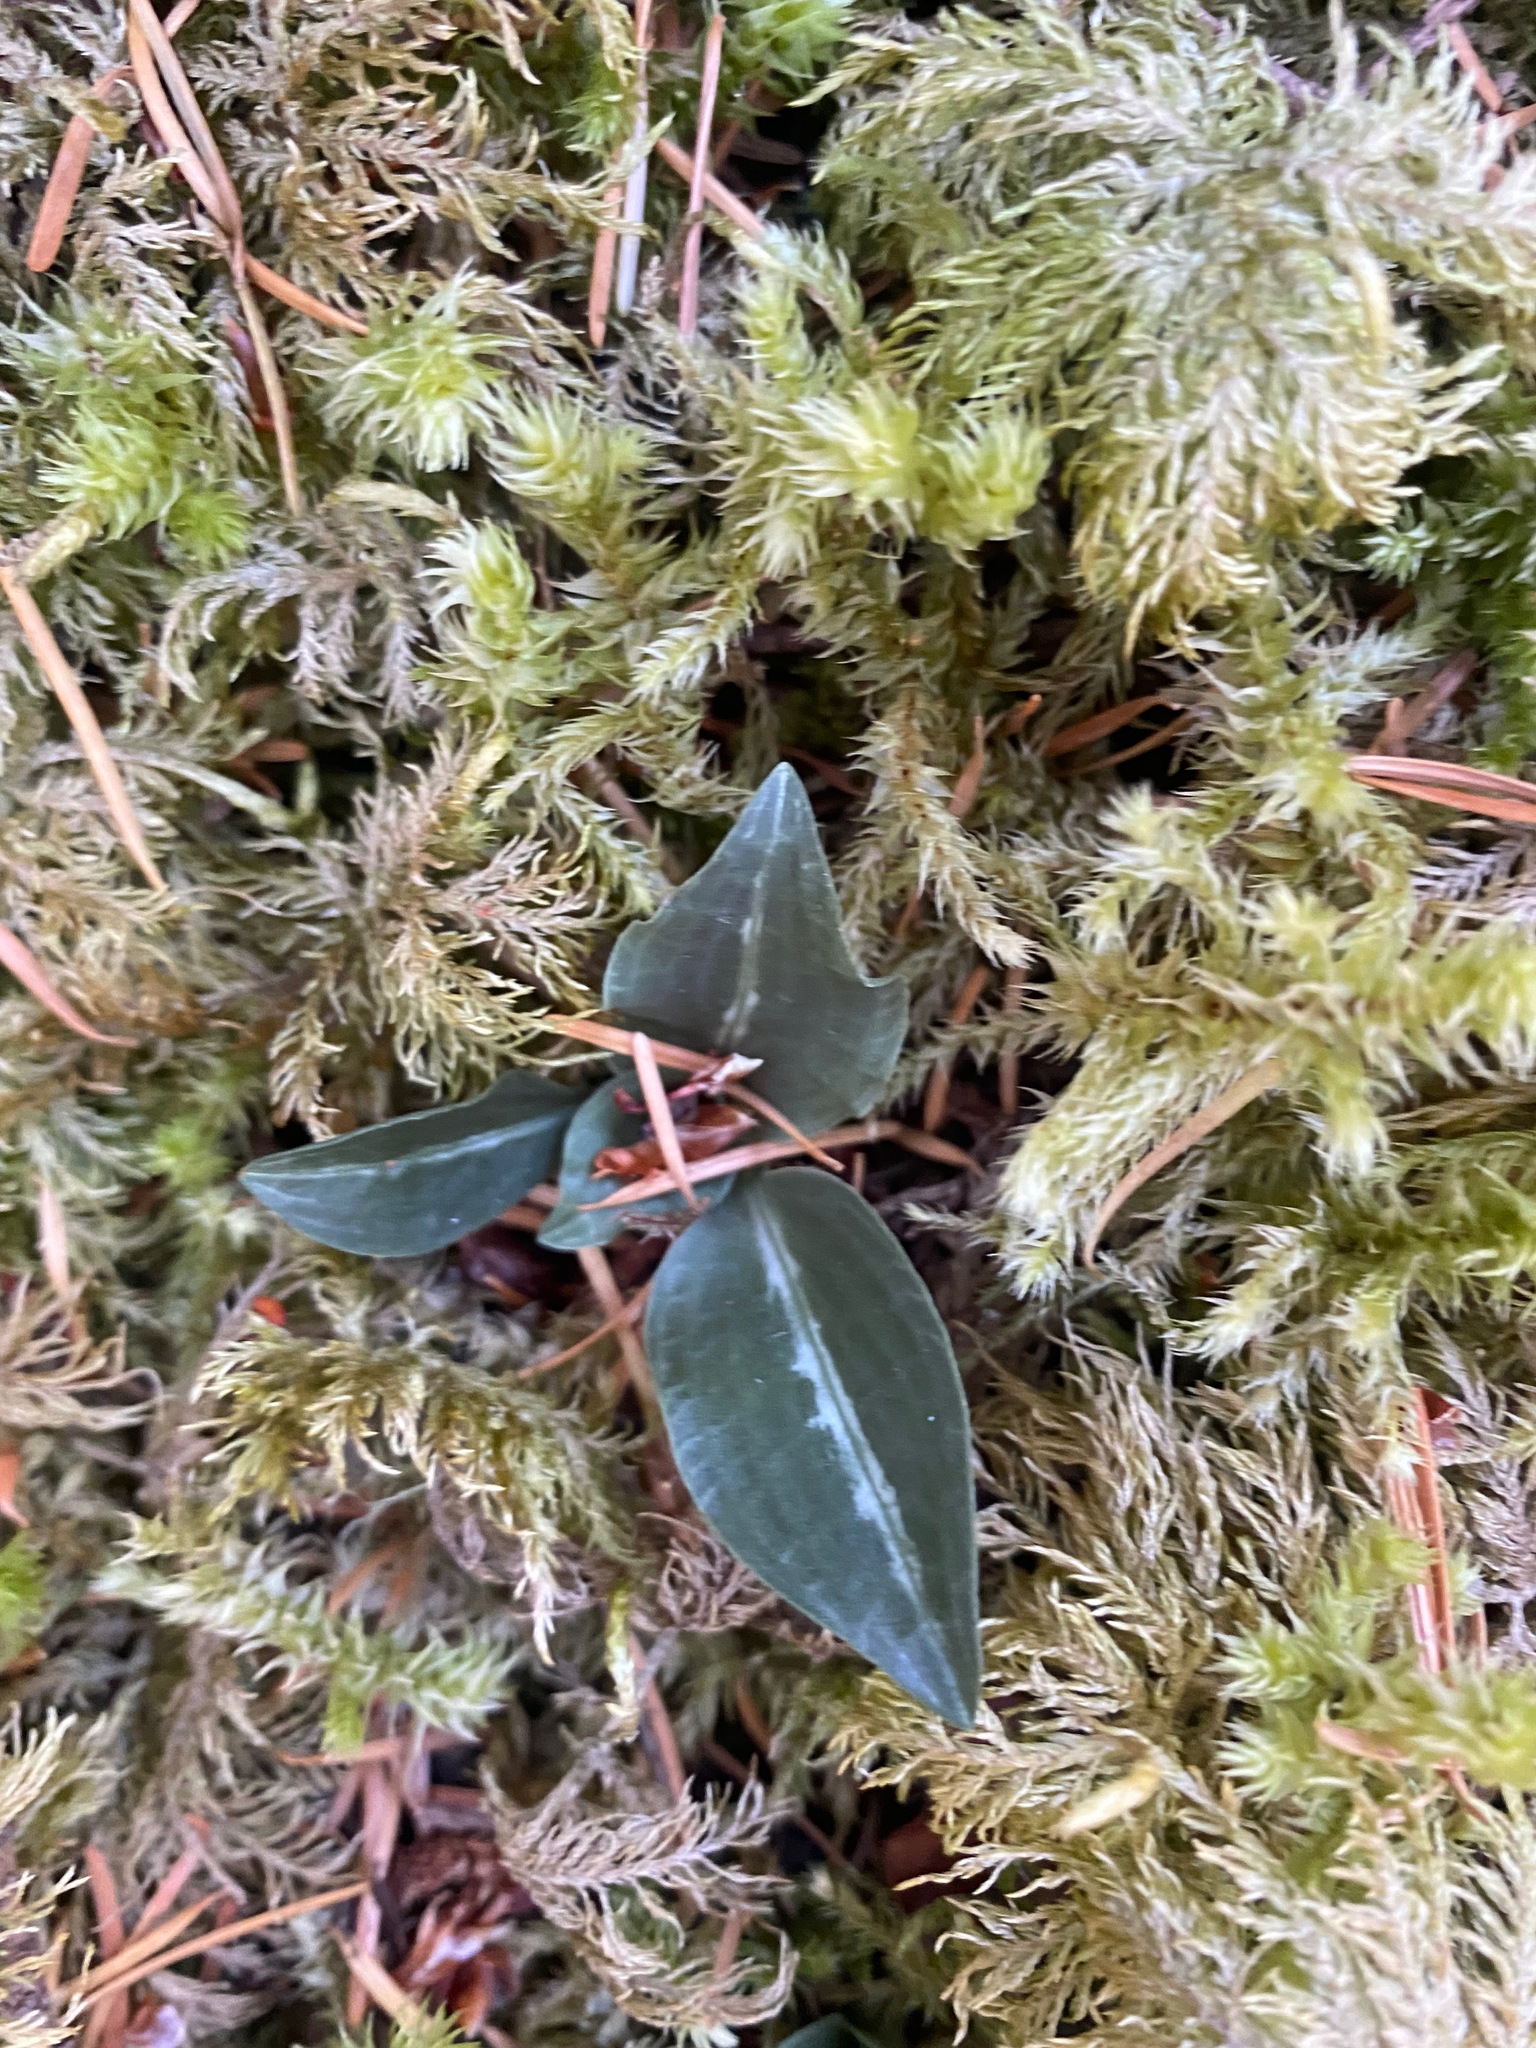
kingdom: Plantae
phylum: Tracheophyta
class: Liliopsida
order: Asparagales
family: Orchidaceae
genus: Goodyera
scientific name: Goodyera oblongifolia
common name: Giant rattlesnake-plantain
